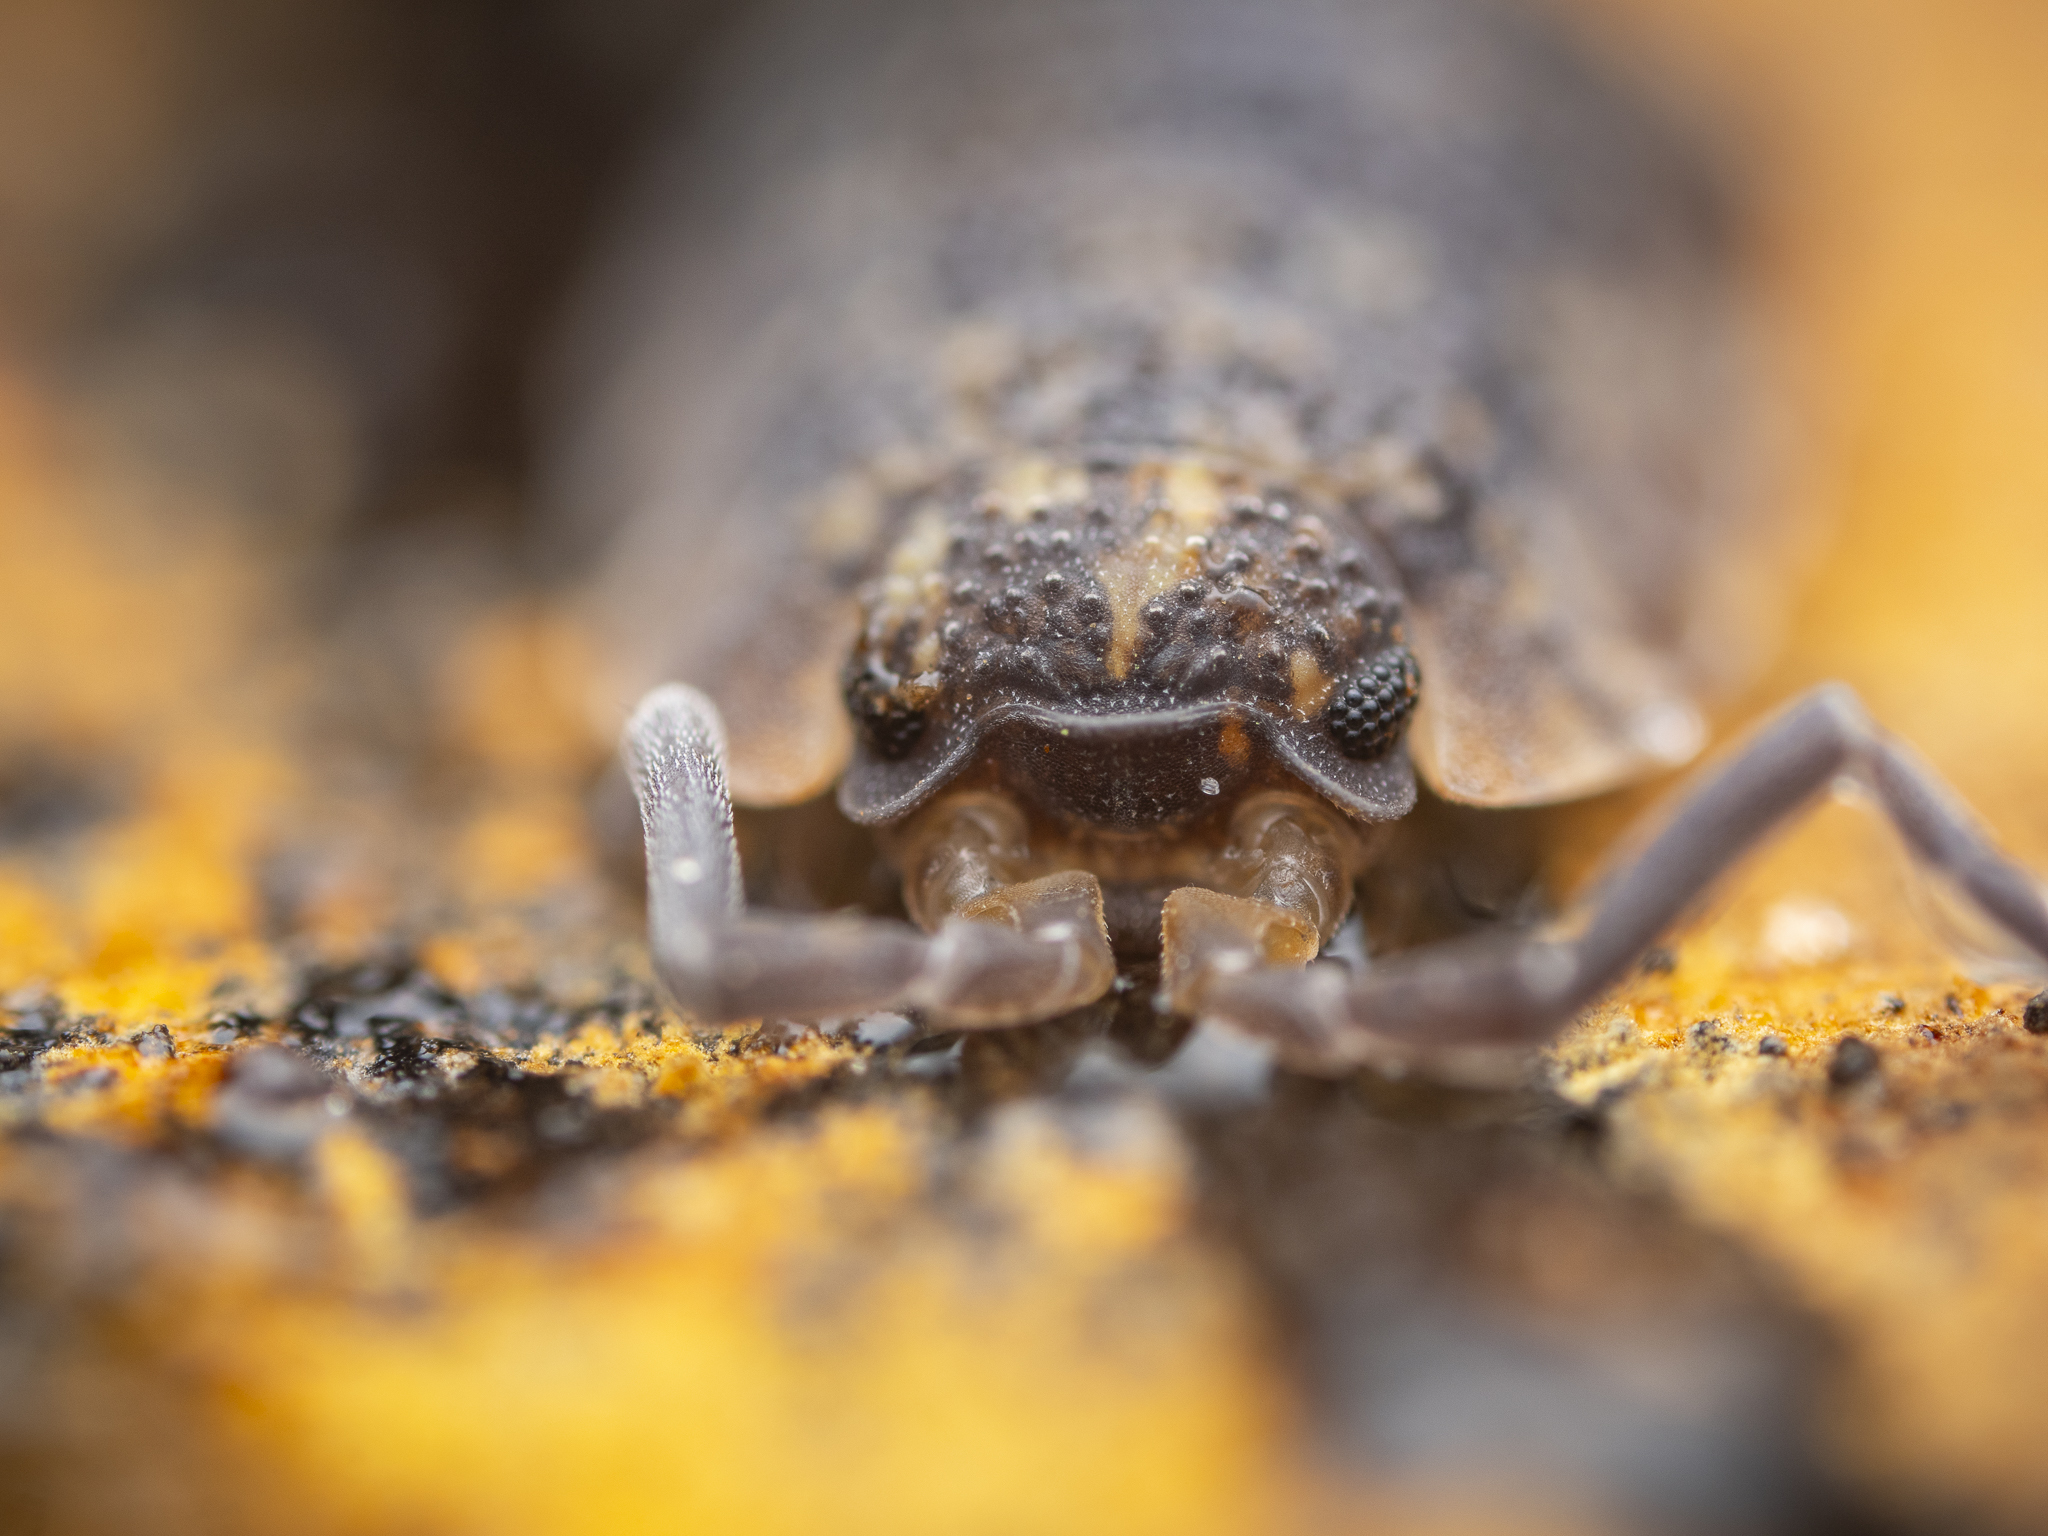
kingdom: Animalia
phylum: Arthropoda
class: Malacostraca
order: Isopoda
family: Porcellionidae
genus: Porcellio
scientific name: Porcellio scaber
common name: Common rough woodlouse
